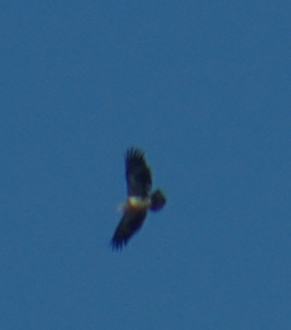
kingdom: Animalia
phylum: Chordata
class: Aves
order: Accipitriformes
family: Accipitridae
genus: Haliaeetus
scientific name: Haliaeetus leucocephalus
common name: Bald eagle
